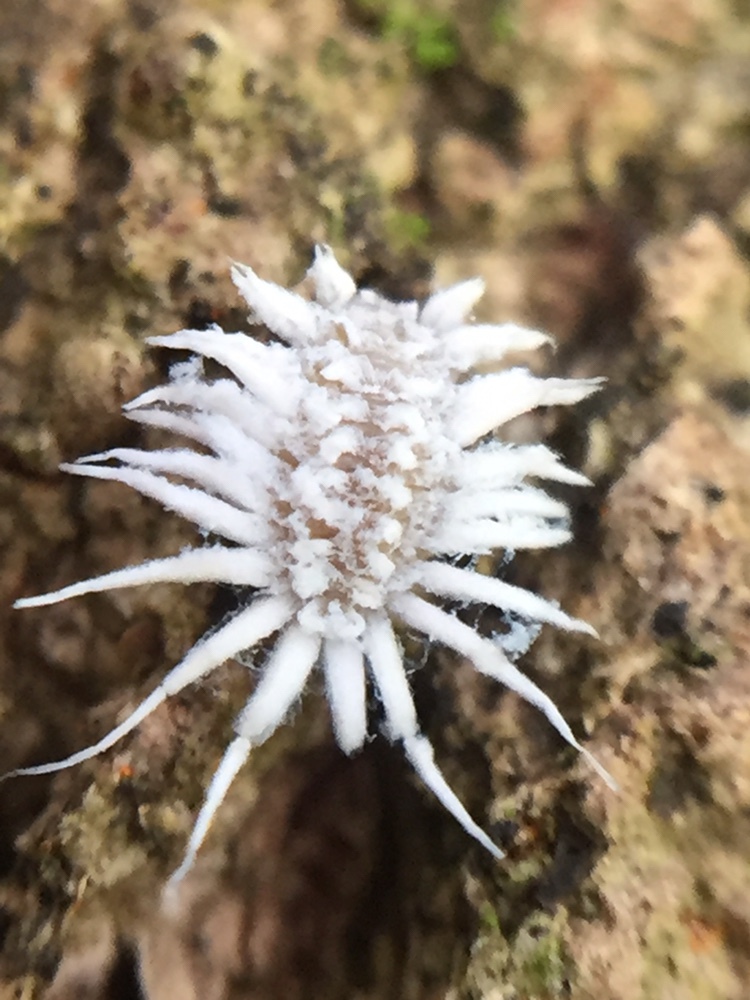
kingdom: Animalia
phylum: Arthropoda
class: Insecta
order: Coleoptera
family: Coccinellidae
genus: Telsimia
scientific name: Telsimia
